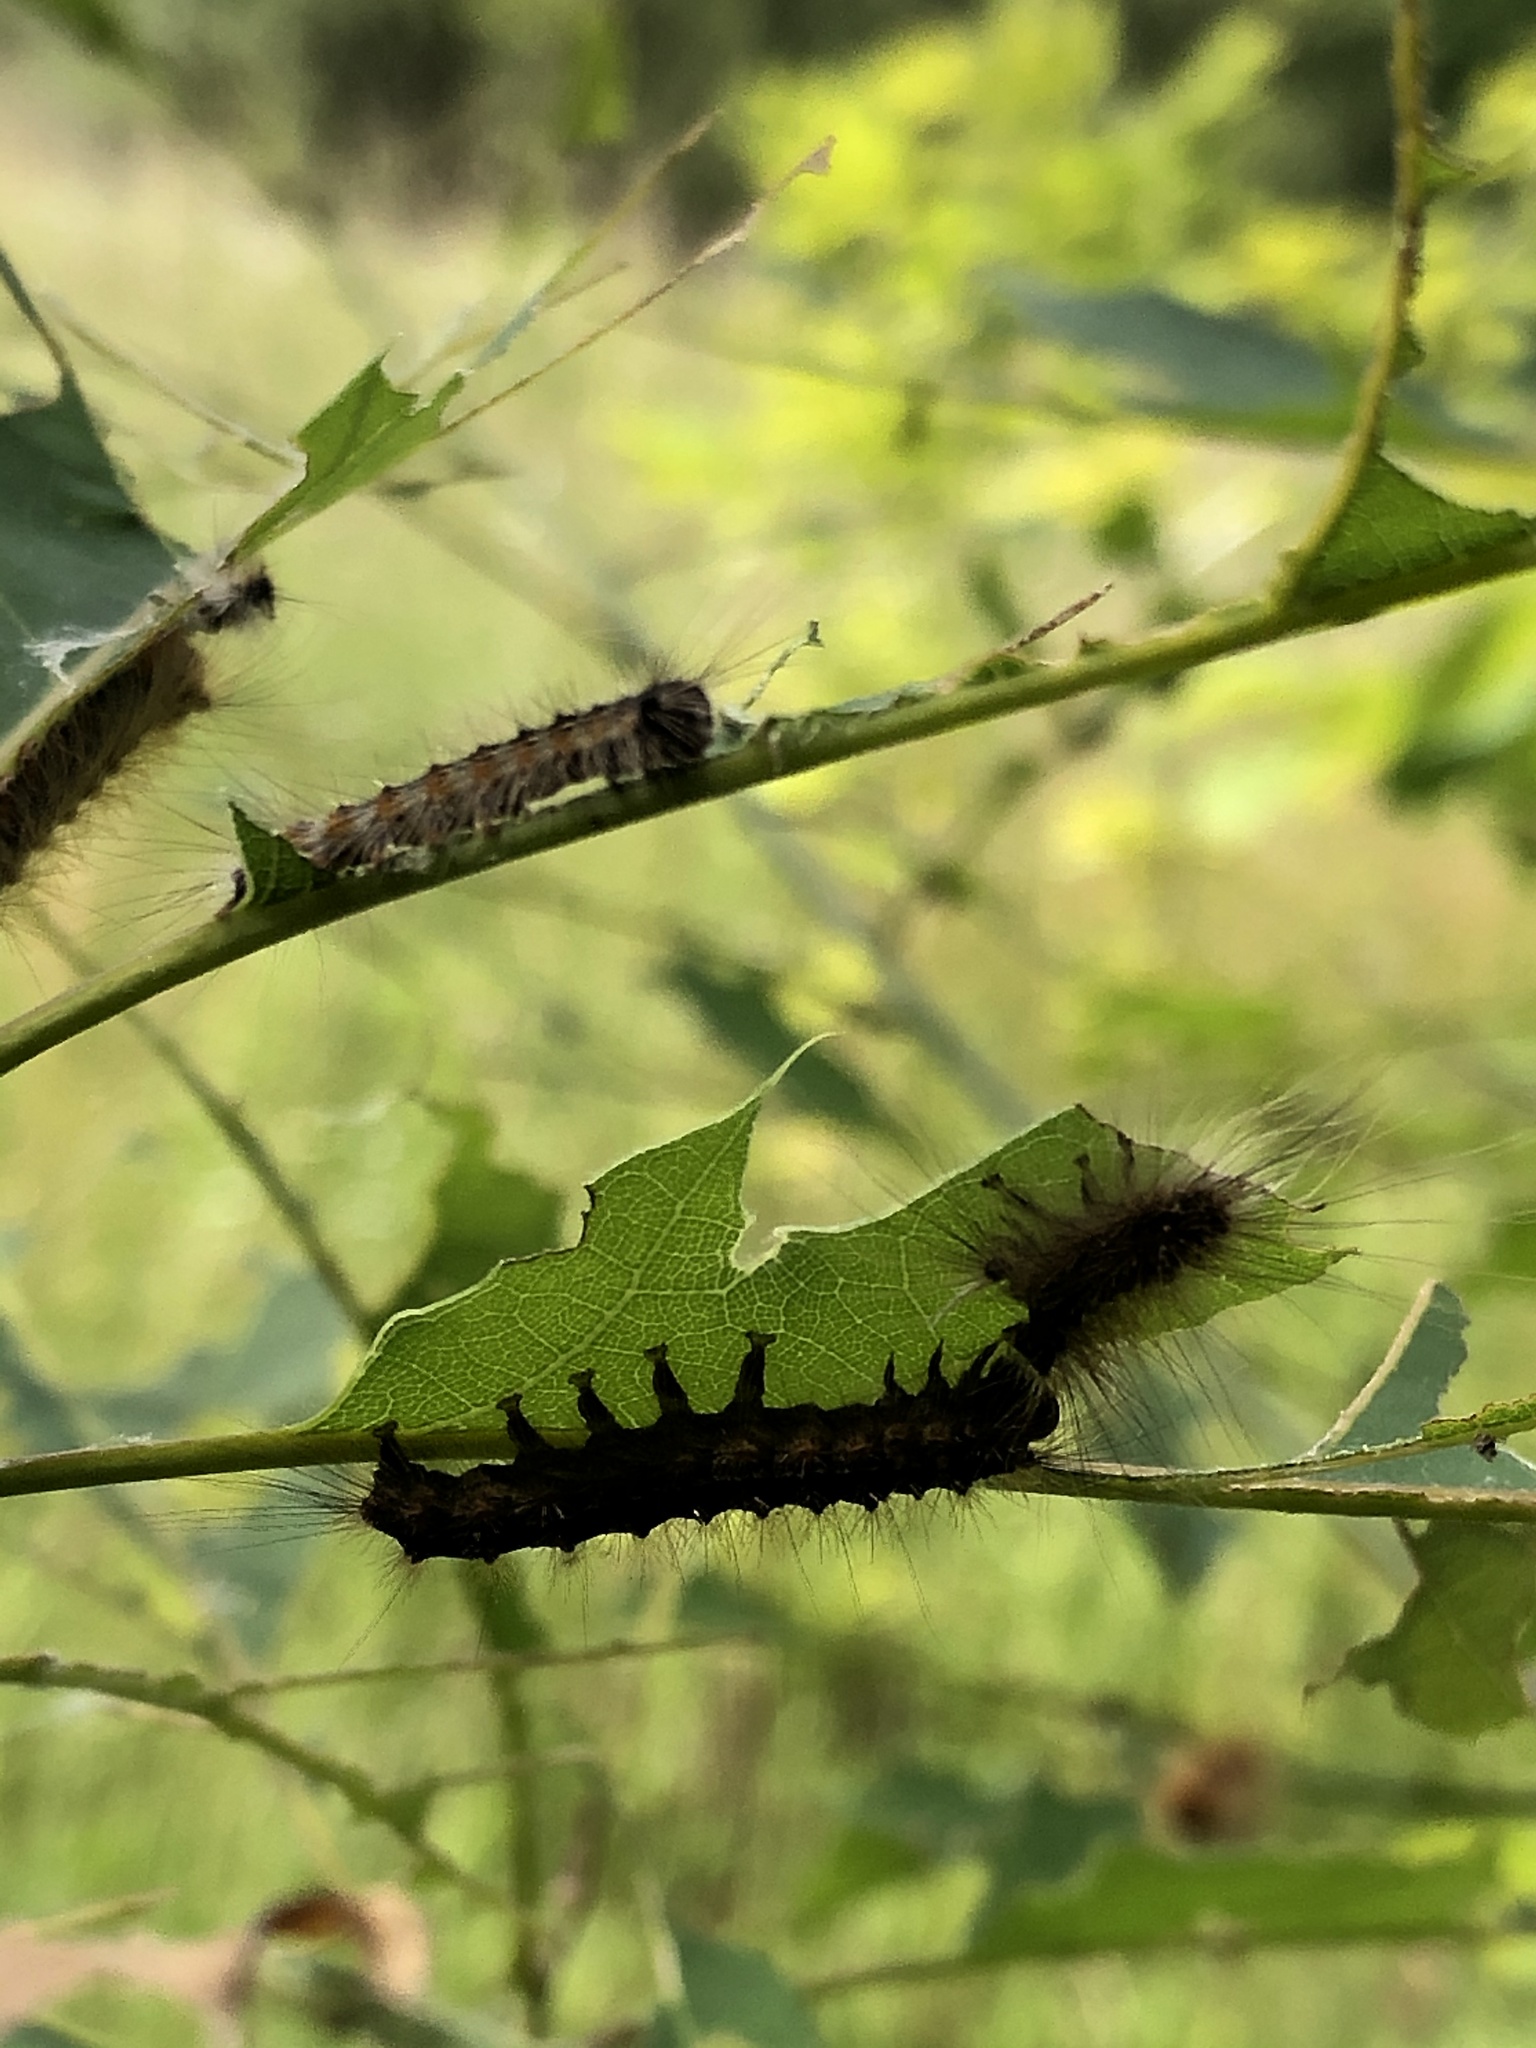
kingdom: Animalia
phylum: Arthropoda
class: Insecta
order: Lepidoptera
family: Erebidae
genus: Lymantria
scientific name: Lymantria dispar
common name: Gypsy moth
